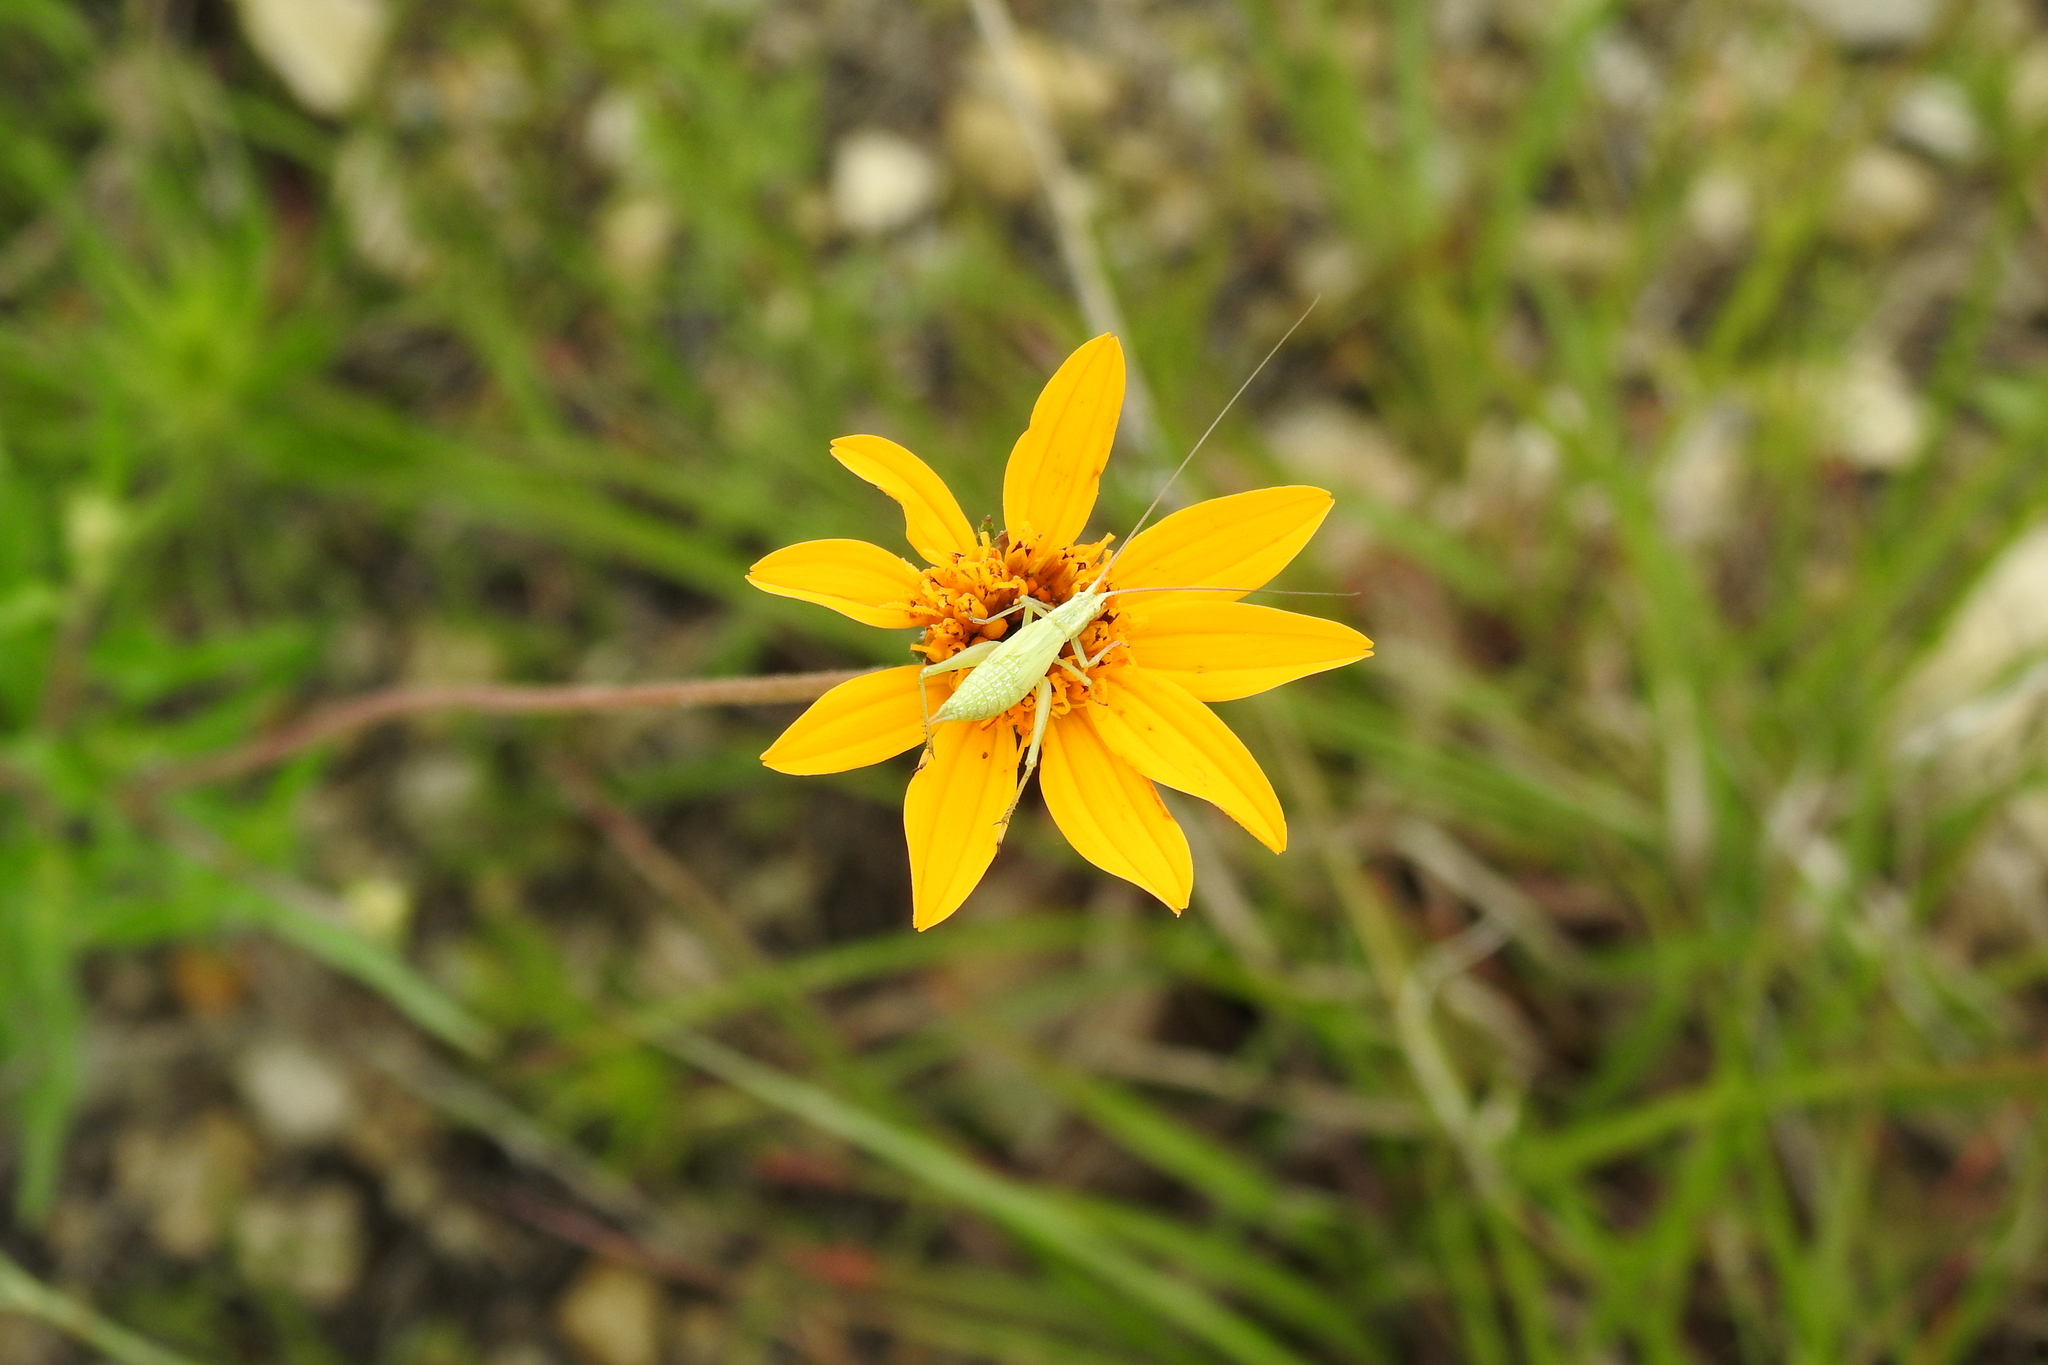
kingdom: Plantae
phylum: Tracheophyta
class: Magnoliopsida
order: Asterales
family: Asteraceae
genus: Wedelia
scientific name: Wedelia acapulcensis
